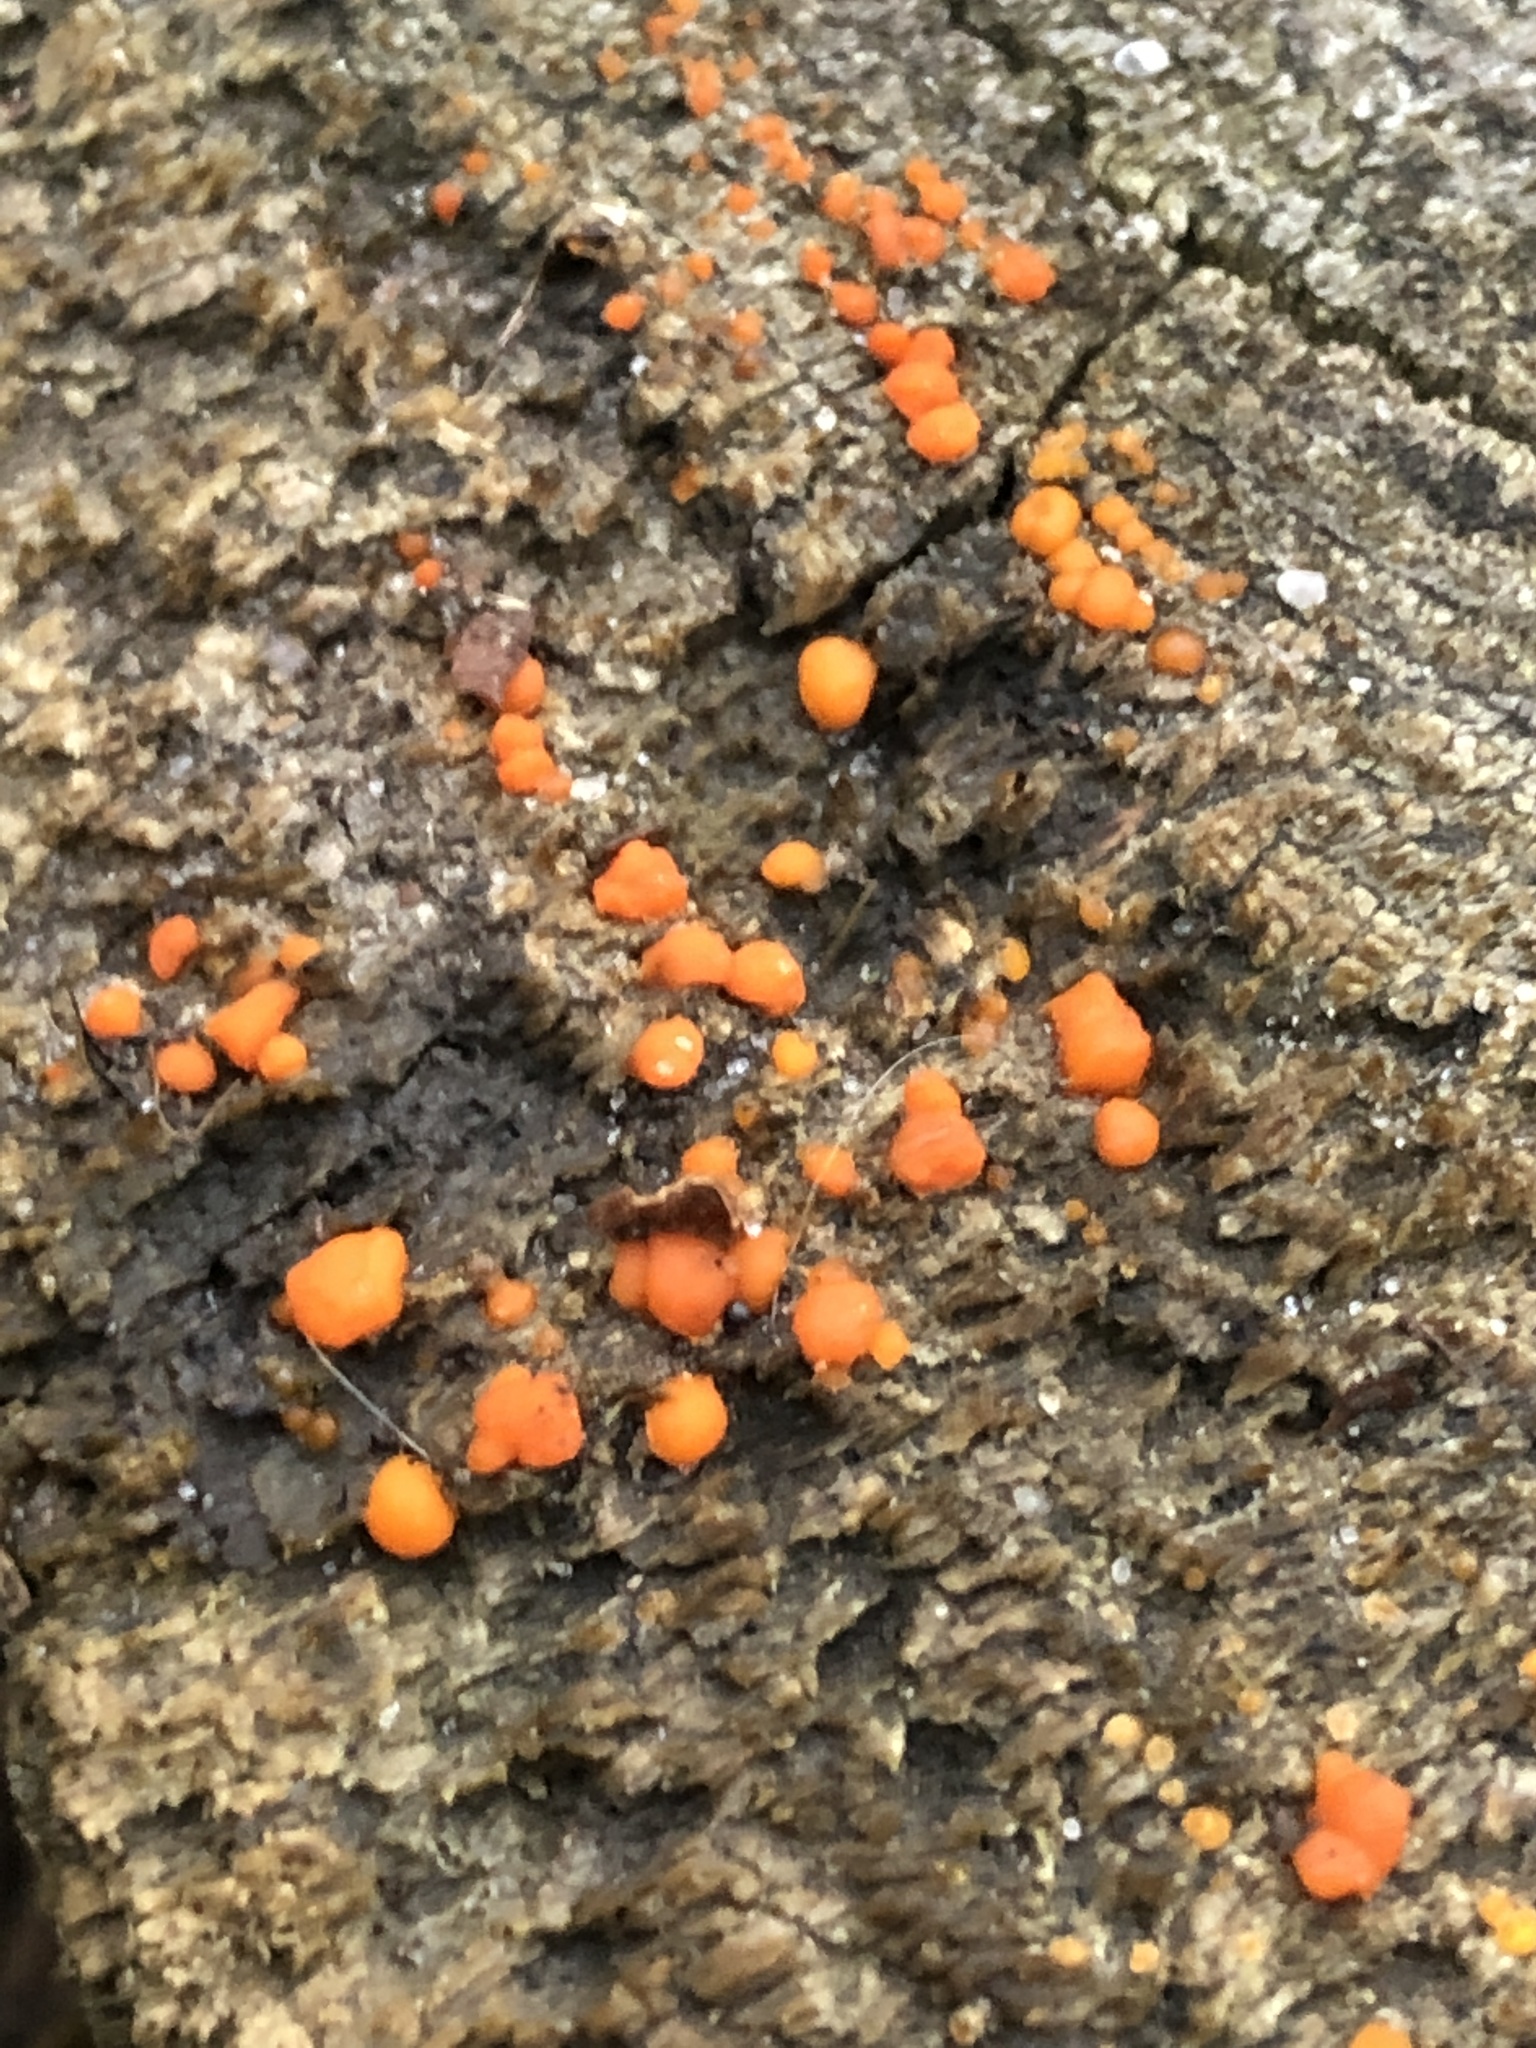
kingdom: Fungi
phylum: Basidiomycota
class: Dacrymycetes
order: Dacrymycetales
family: Dacrymycetaceae
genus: Dacrymyces
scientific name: Dacrymyces stillatus
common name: Common jelly spot
